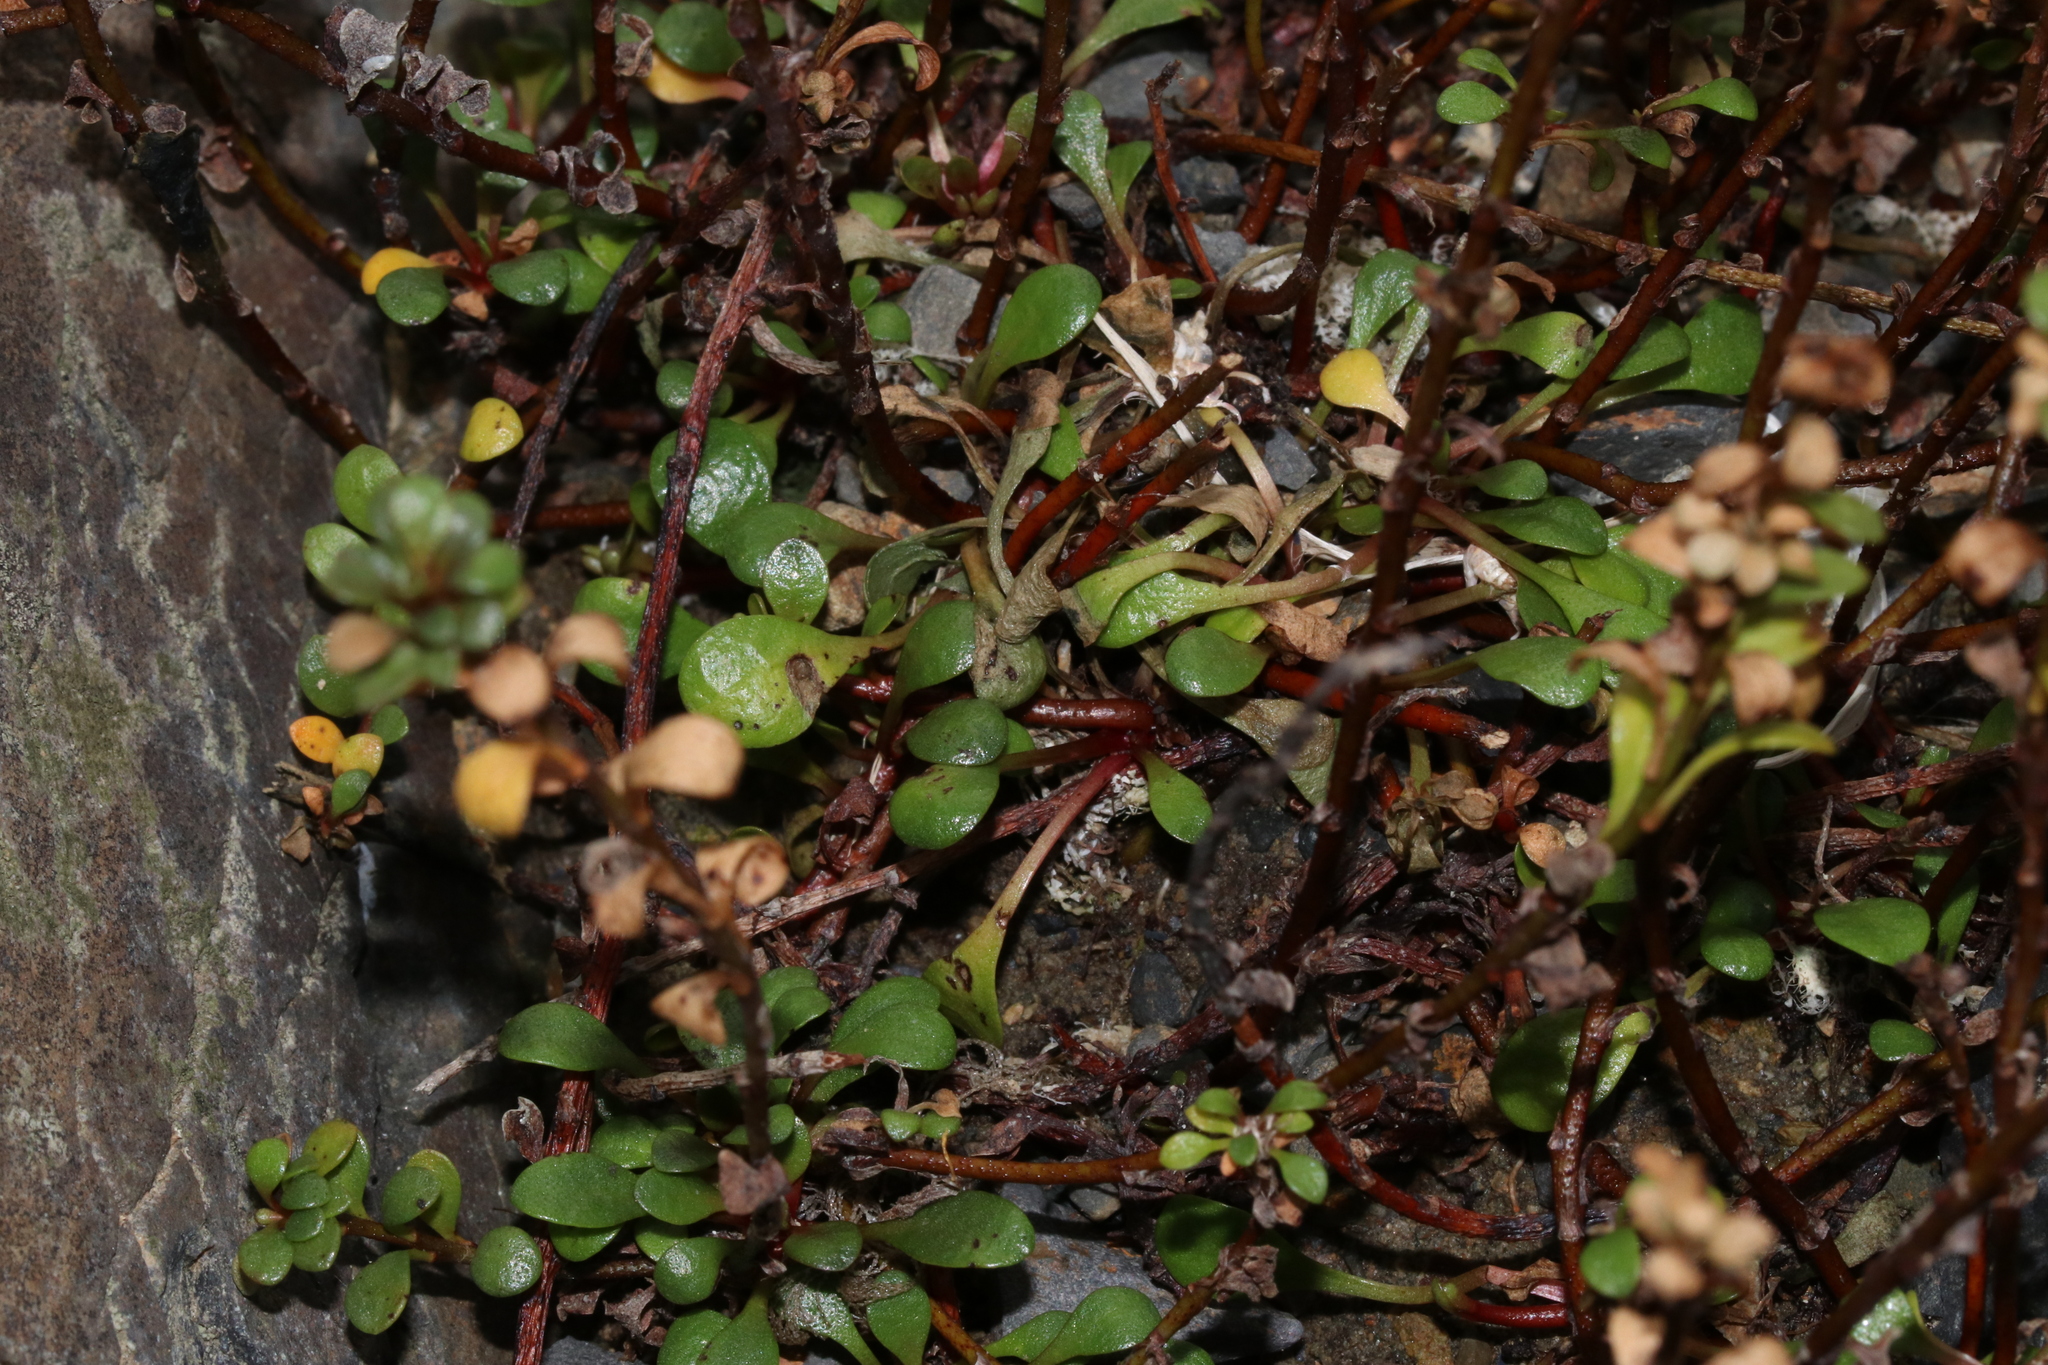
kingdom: Plantae
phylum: Tracheophyta
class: Magnoliopsida
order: Ericales
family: Primulaceae
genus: Samolus
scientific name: Samolus repens
